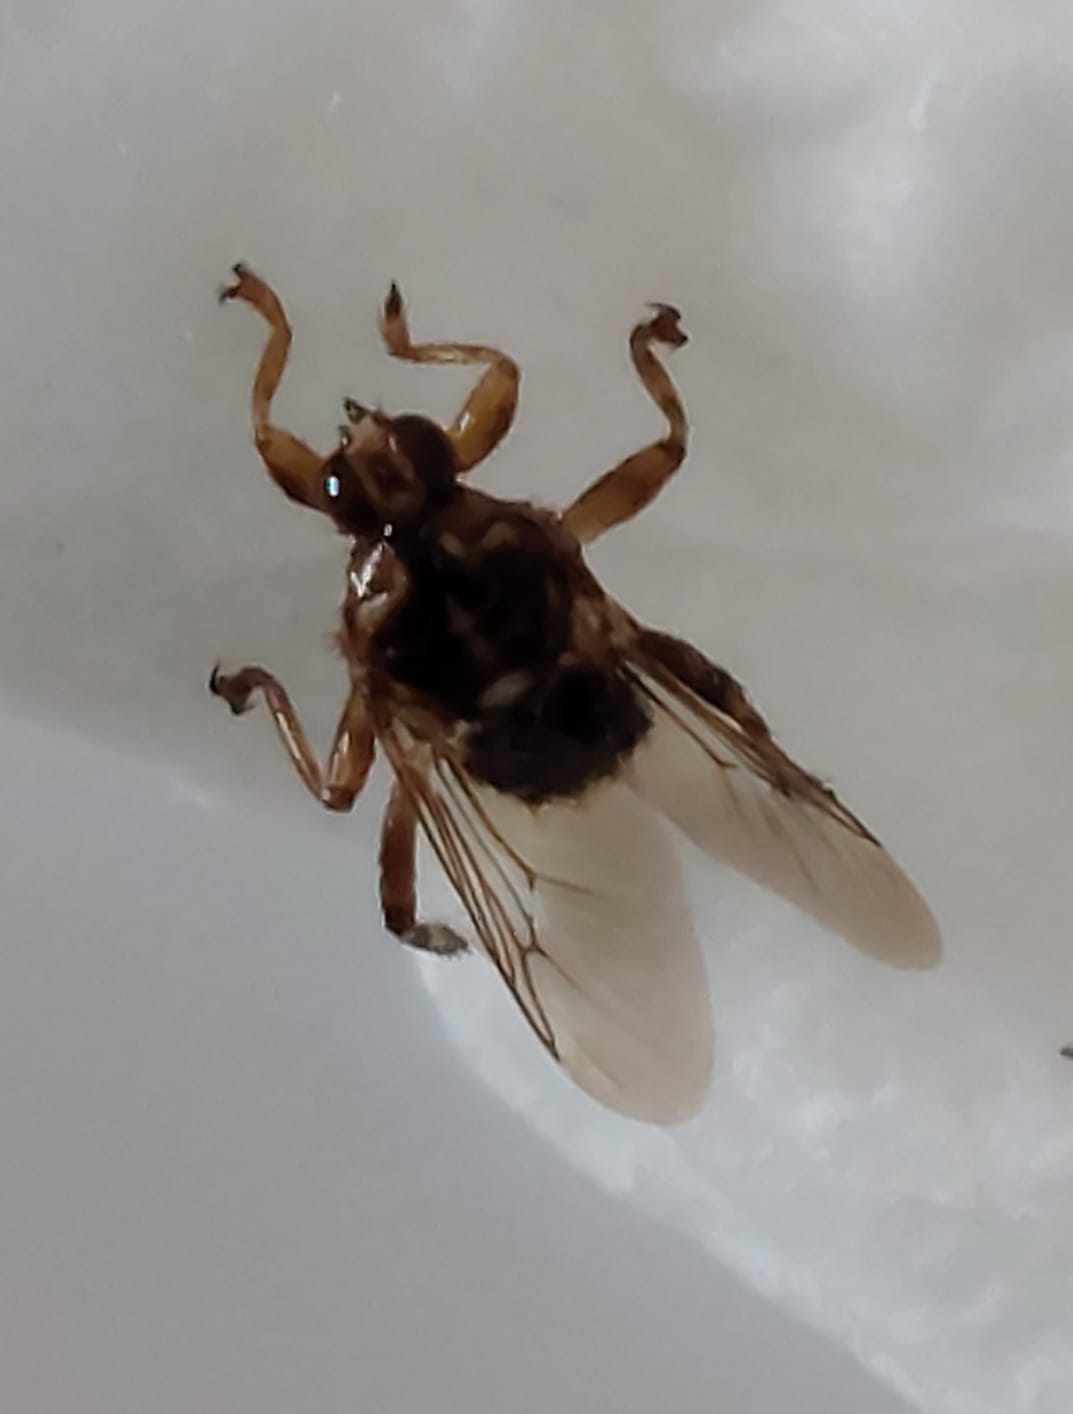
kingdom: Animalia
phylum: Arthropoda
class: Insecta
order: Diptera
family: Hippoboscidae
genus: Hippobosca
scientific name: Hippobosca equina
